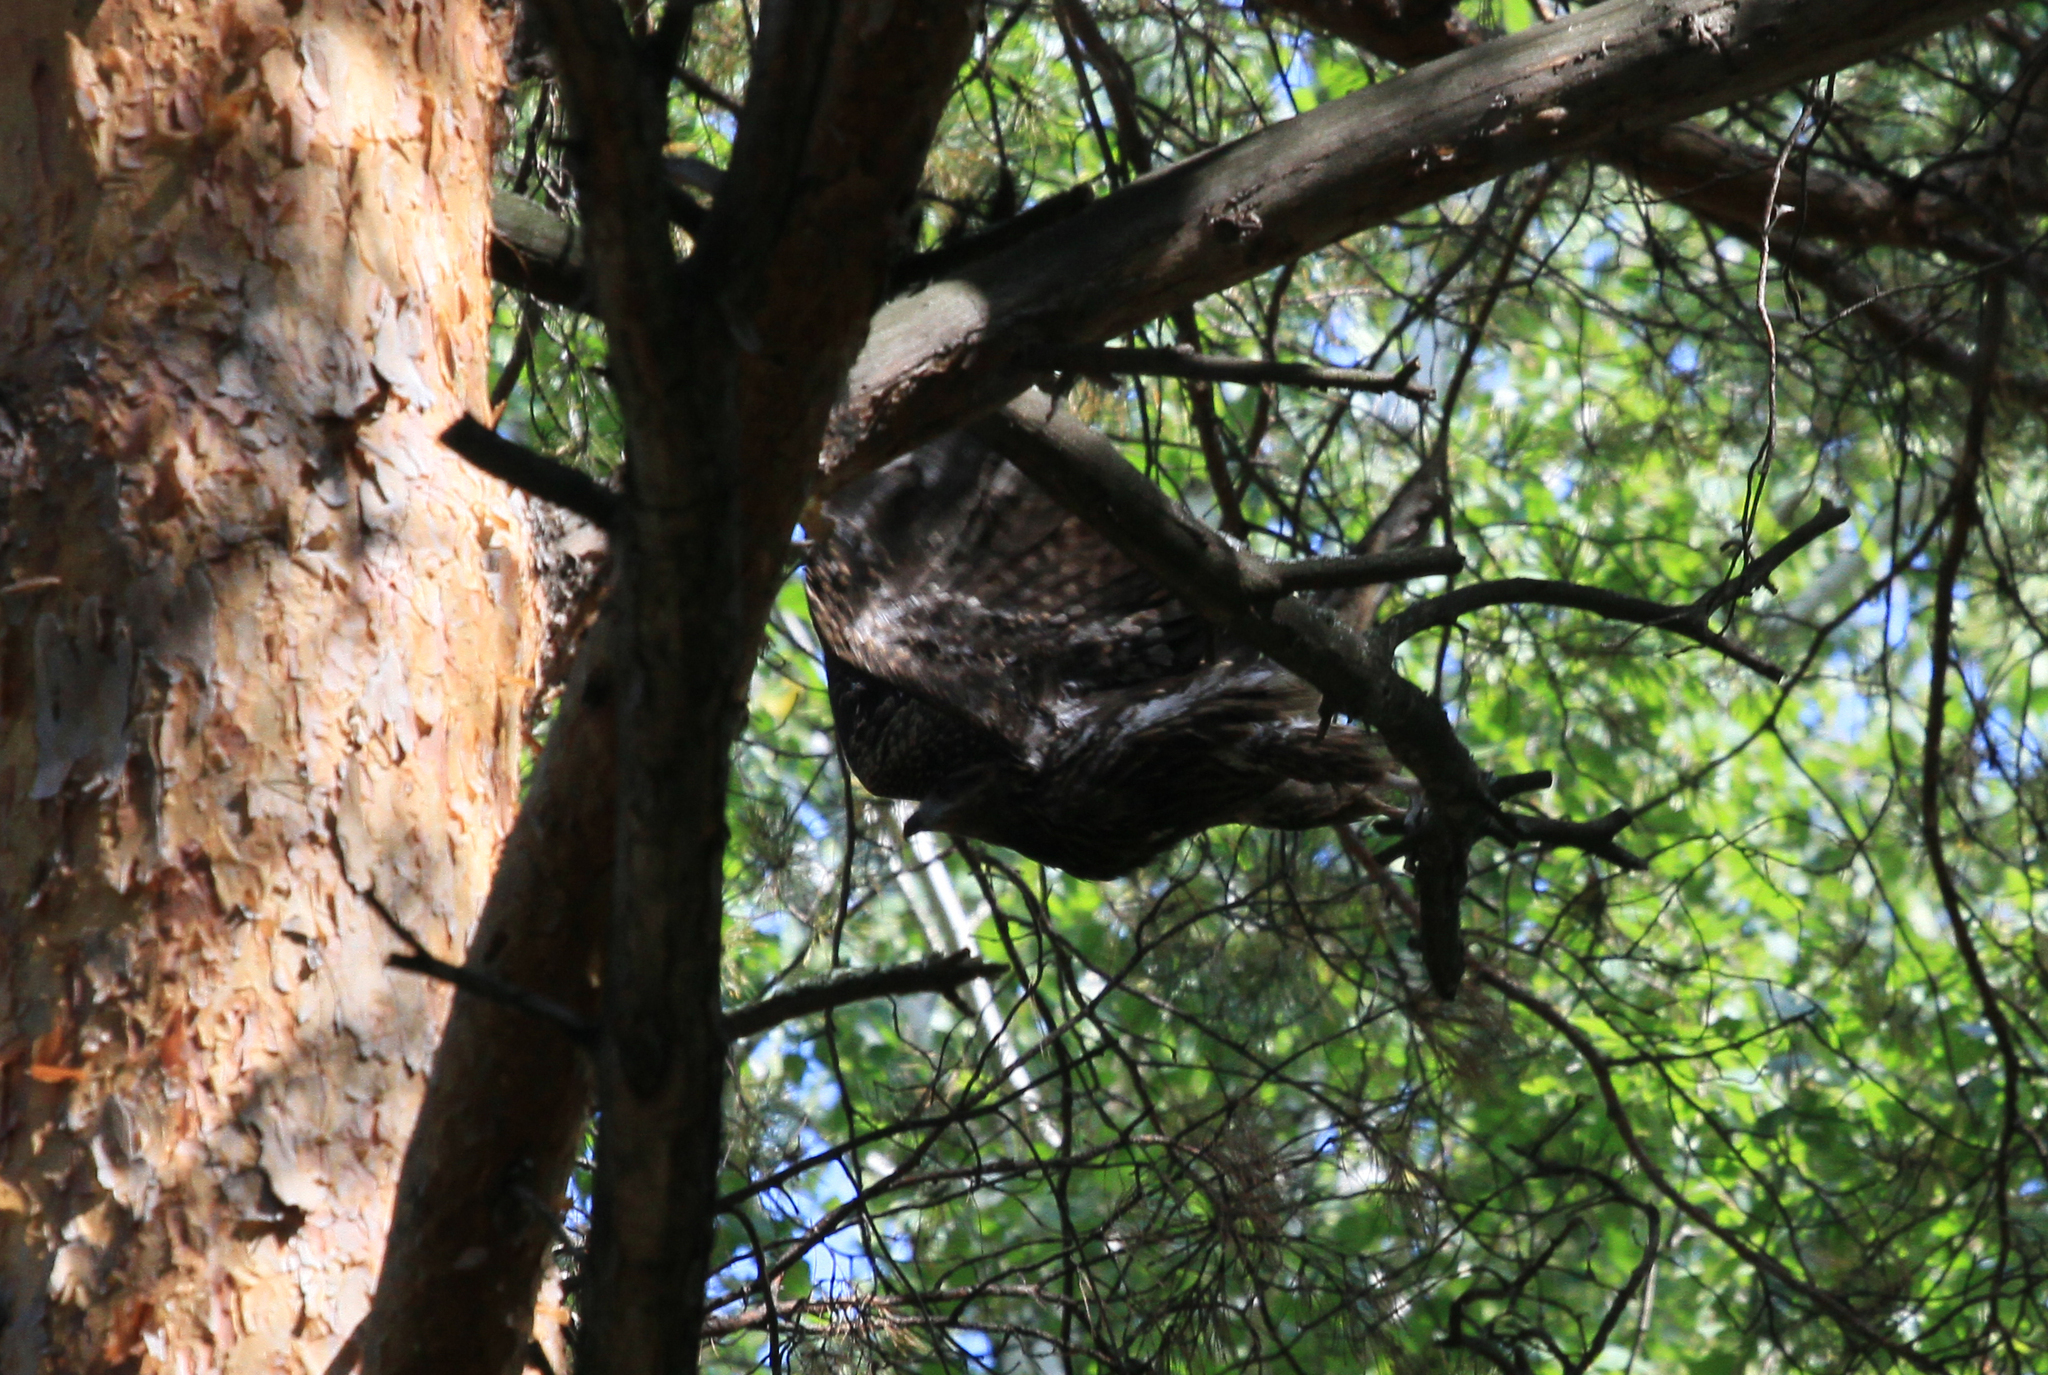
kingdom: Animalia
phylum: Chordata
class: Aves
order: Accipitriformes
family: Accipitridae
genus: Milvus
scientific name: Milvus migrans
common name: Black kite
